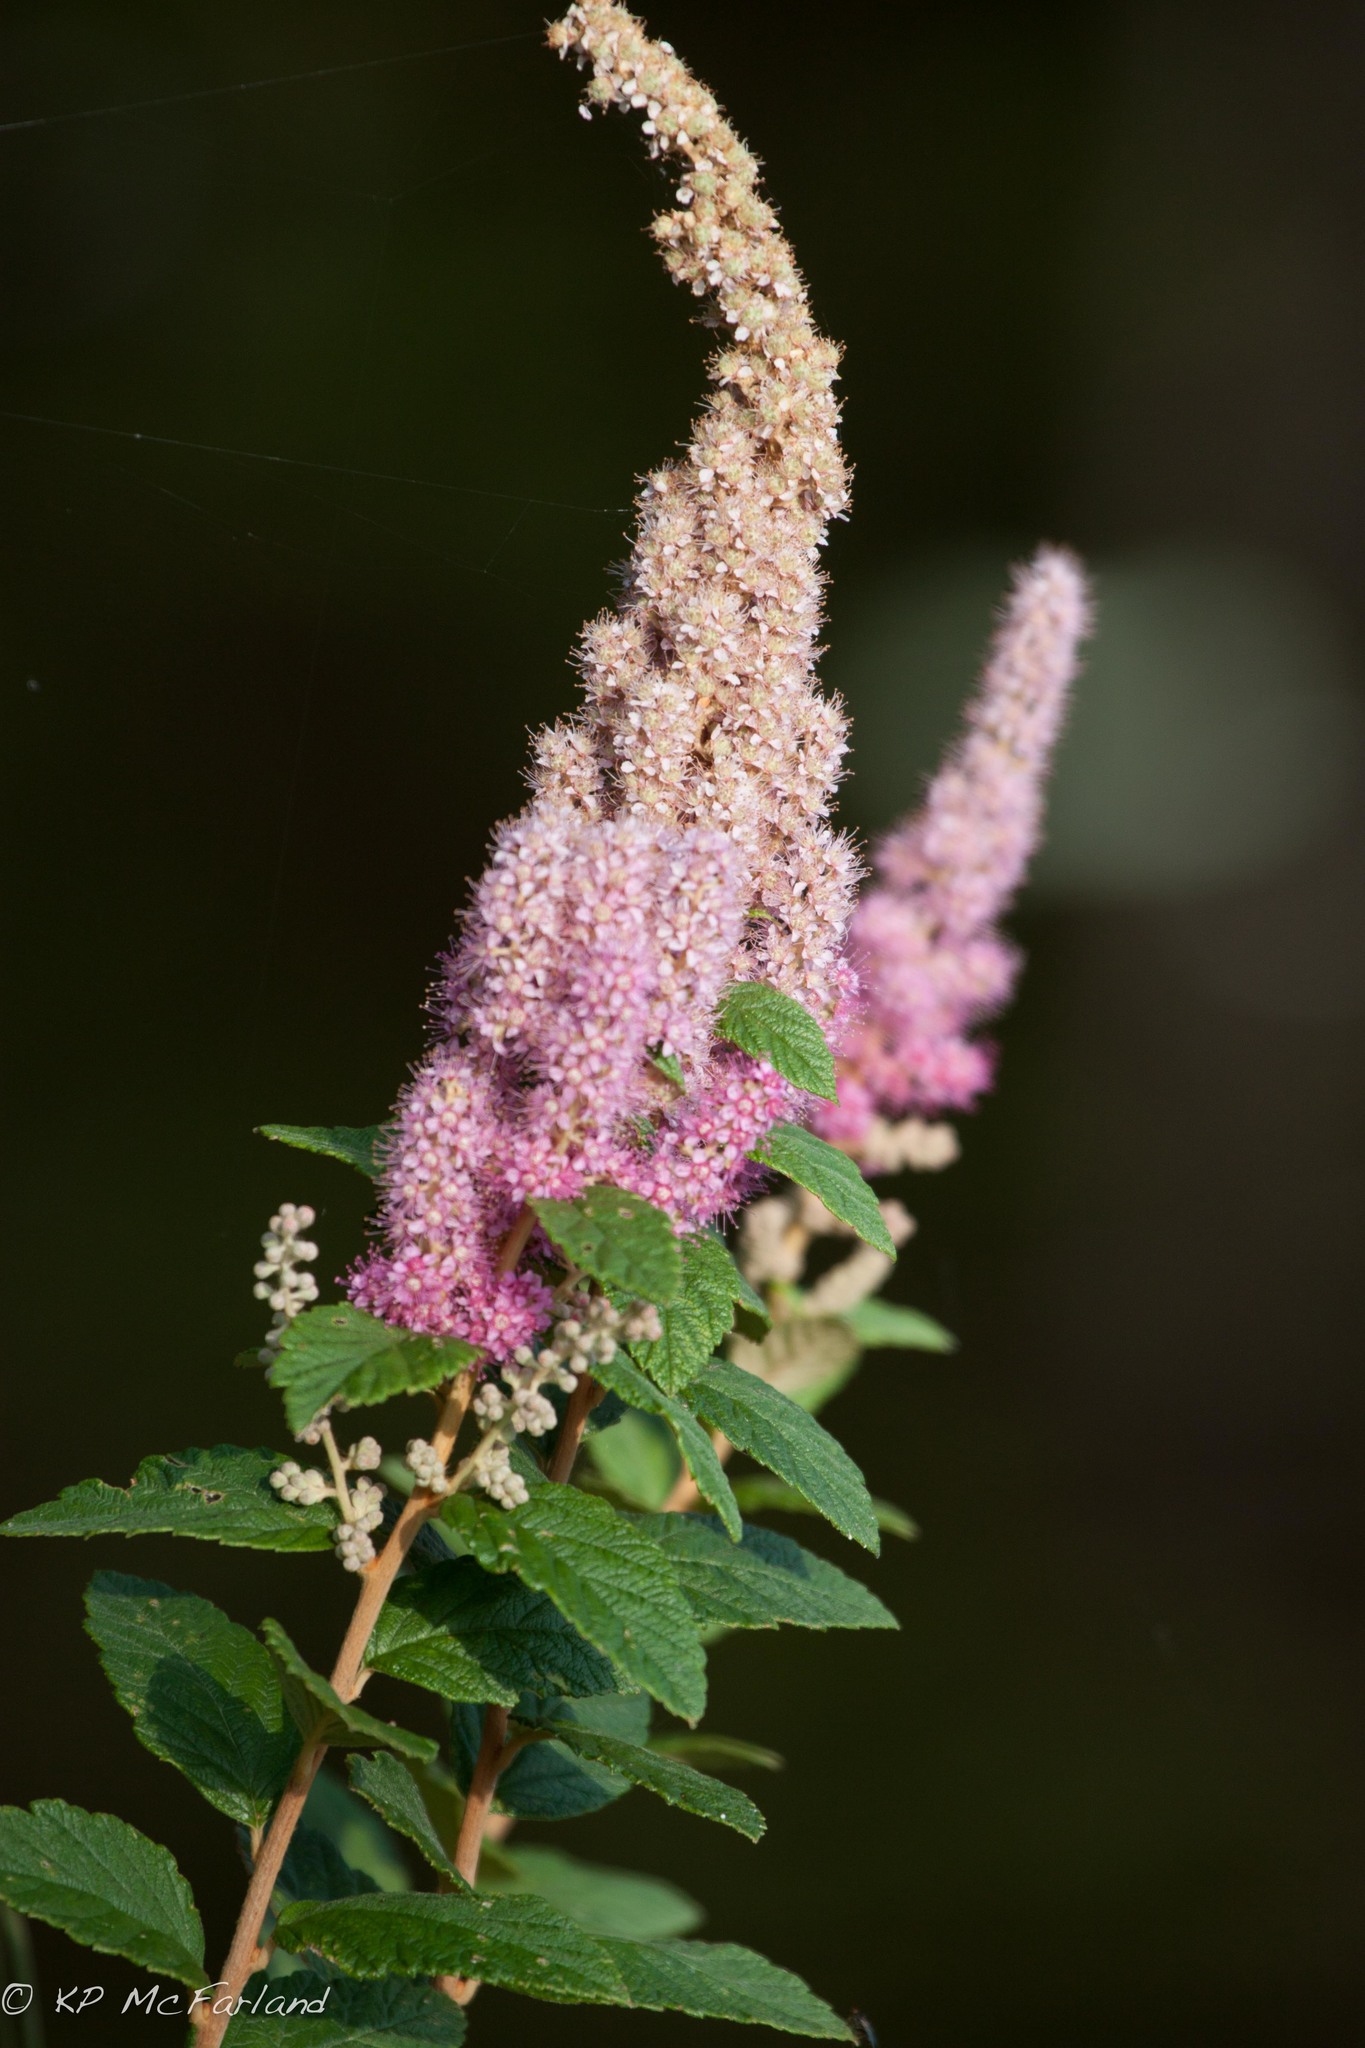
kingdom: Plantae
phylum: Tracheophyta
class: Magnoliopsida
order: Rosales
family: Rosaceae
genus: Spiraea
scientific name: Spiraea tomentosa
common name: Hardhack
